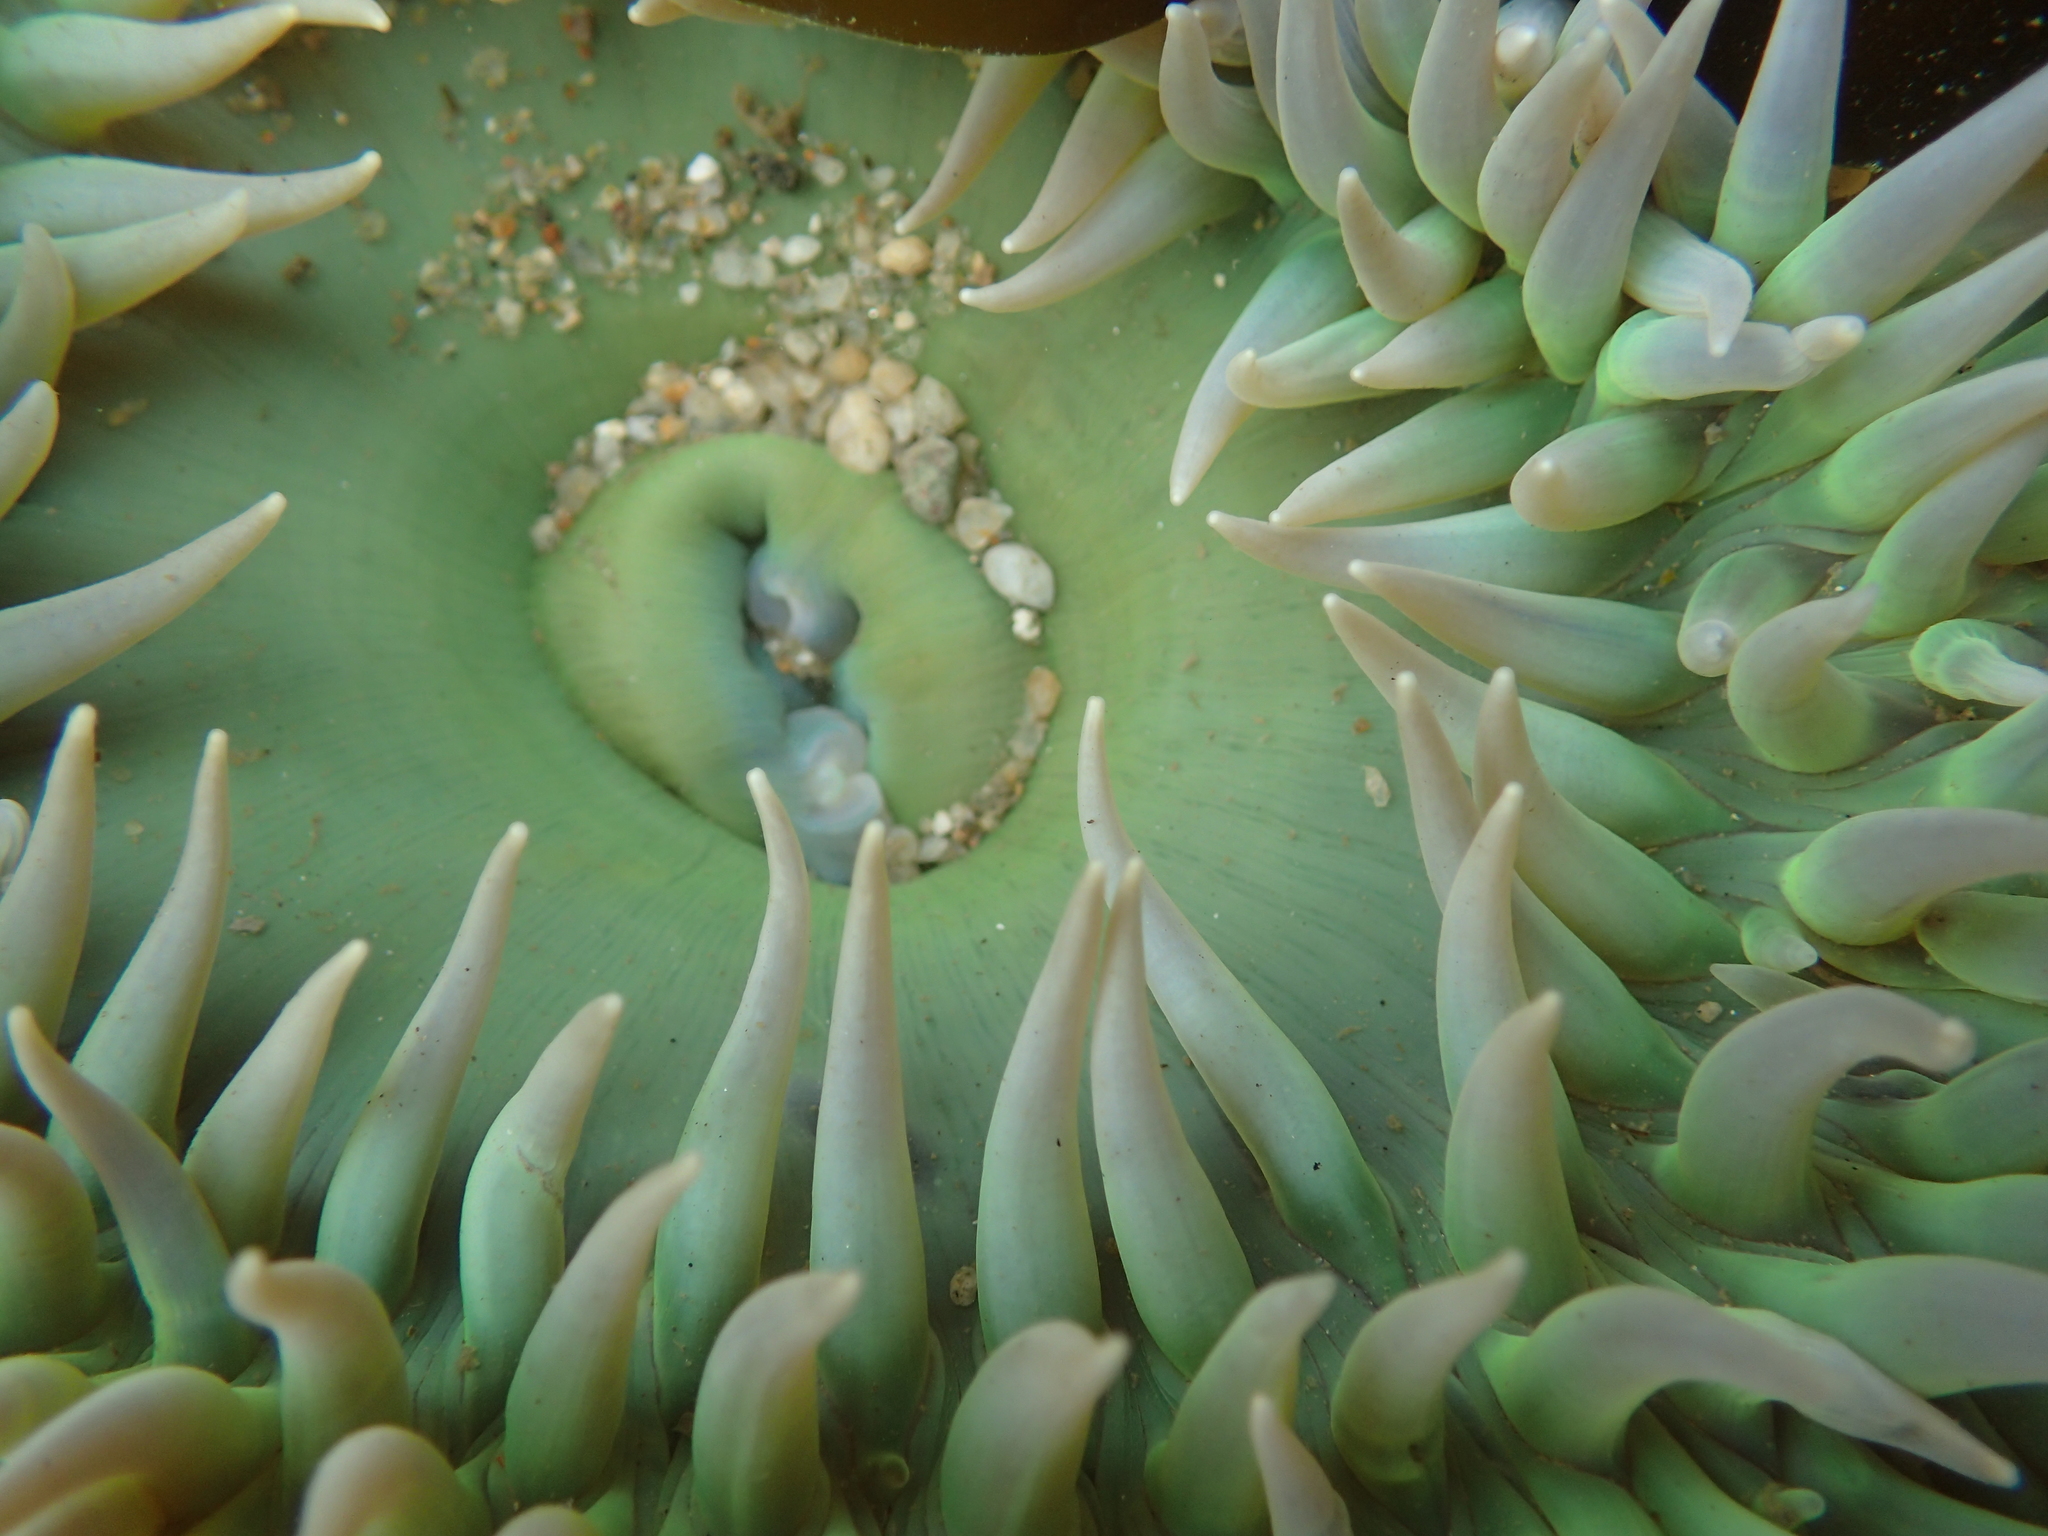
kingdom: Animalia
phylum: Cnidaria
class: Anthozoa
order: Actiniaria
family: Actiniidae
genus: Anthopleura
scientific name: Anthopleura xanthogrammica
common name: Giant green anemone
